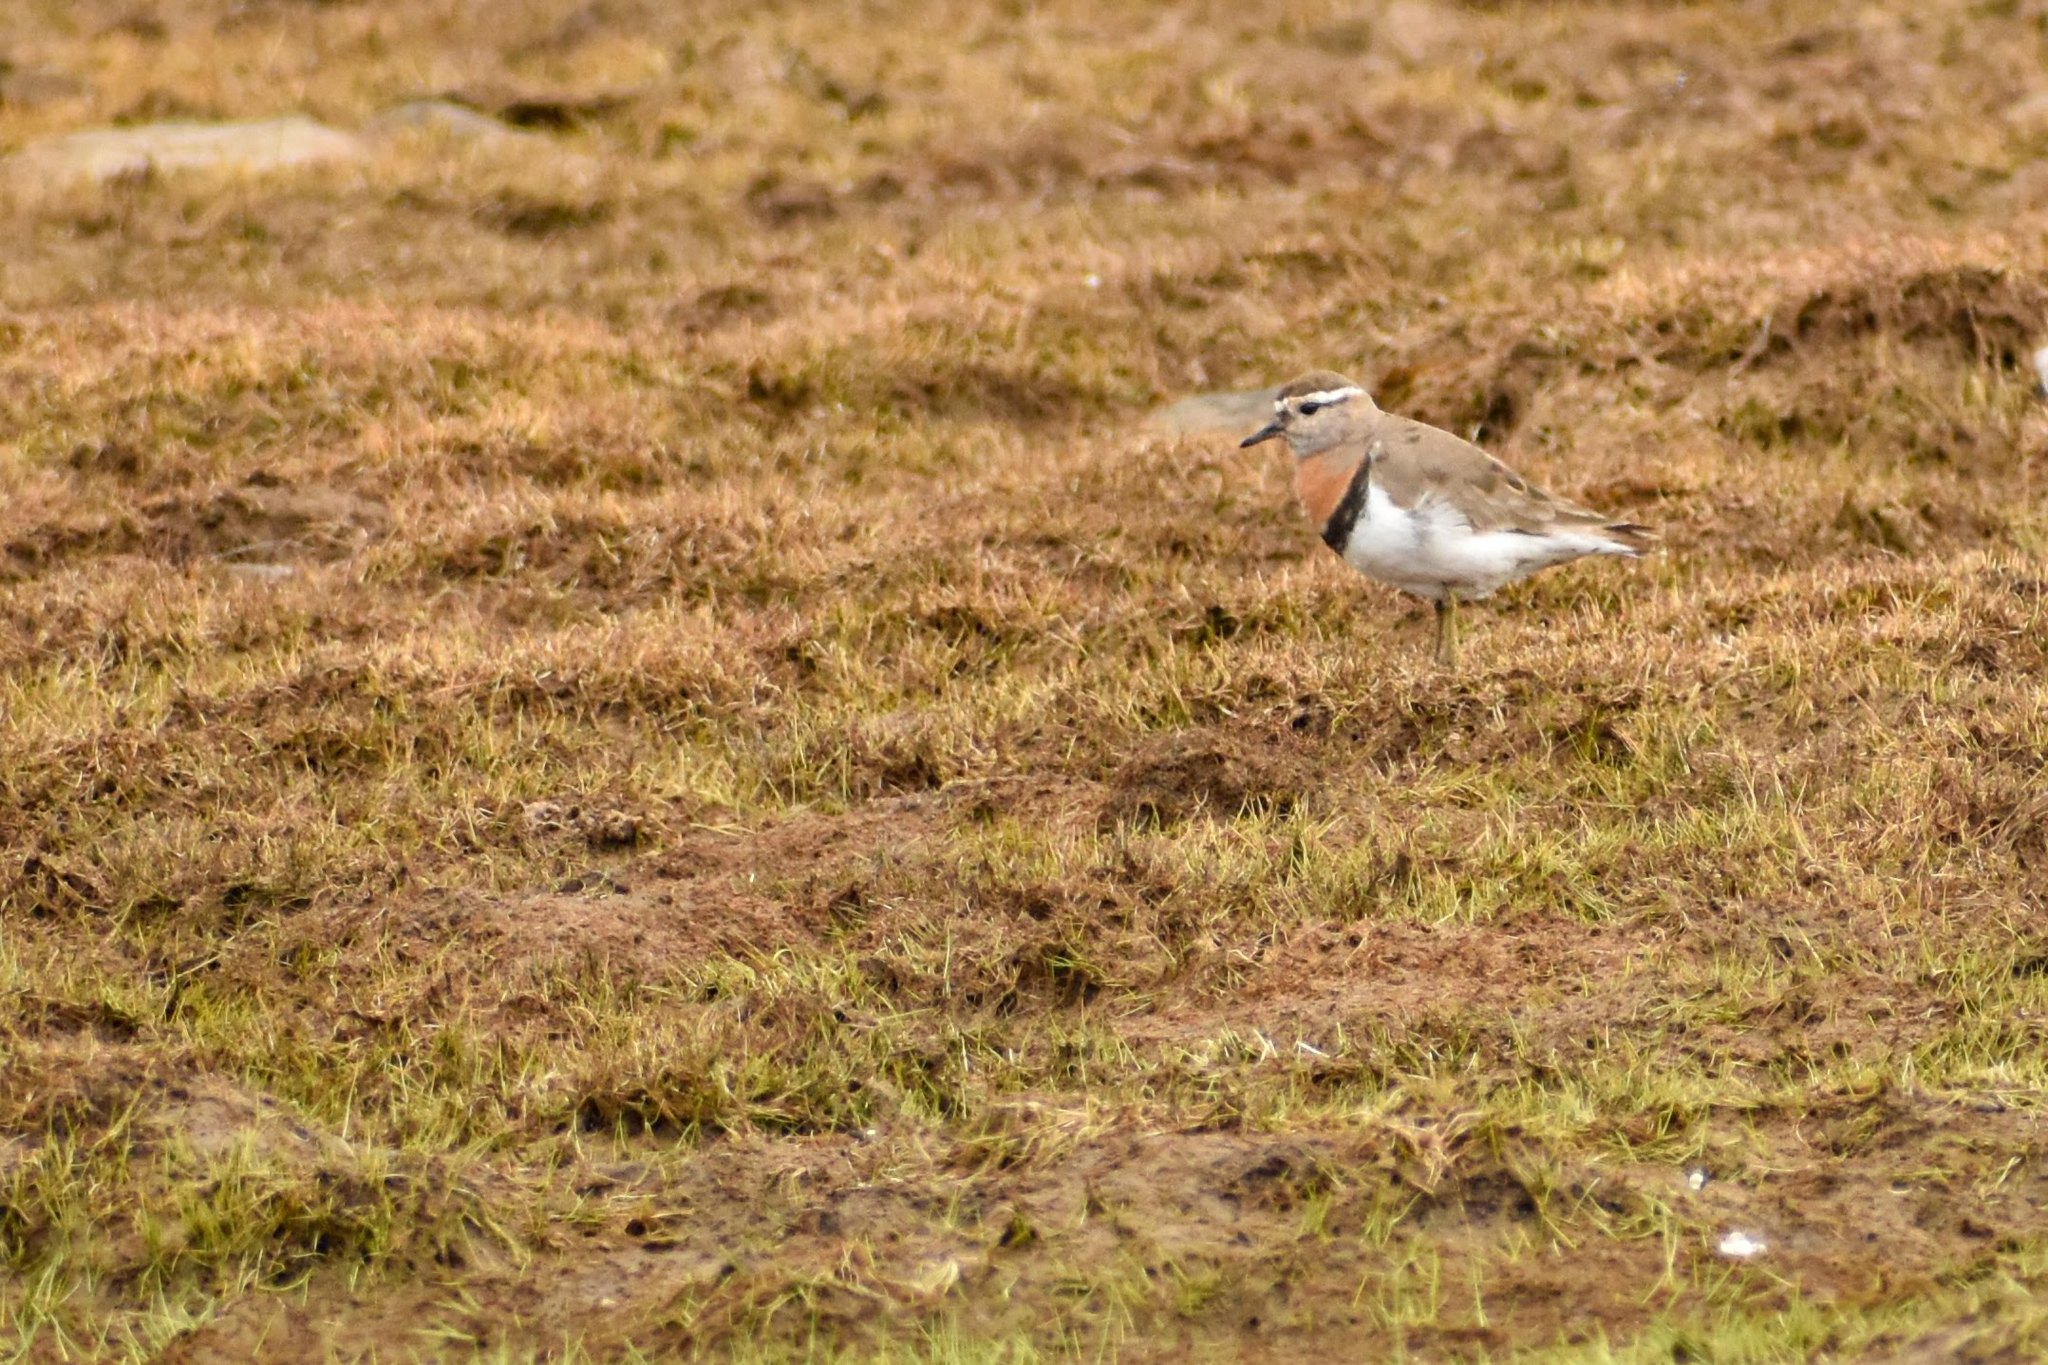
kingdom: Animalia
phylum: Chordata
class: Aves
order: Charadriiformes
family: Charadriidae
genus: Charadrius
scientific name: Charadrius modestus
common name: Rufous-chested plover
